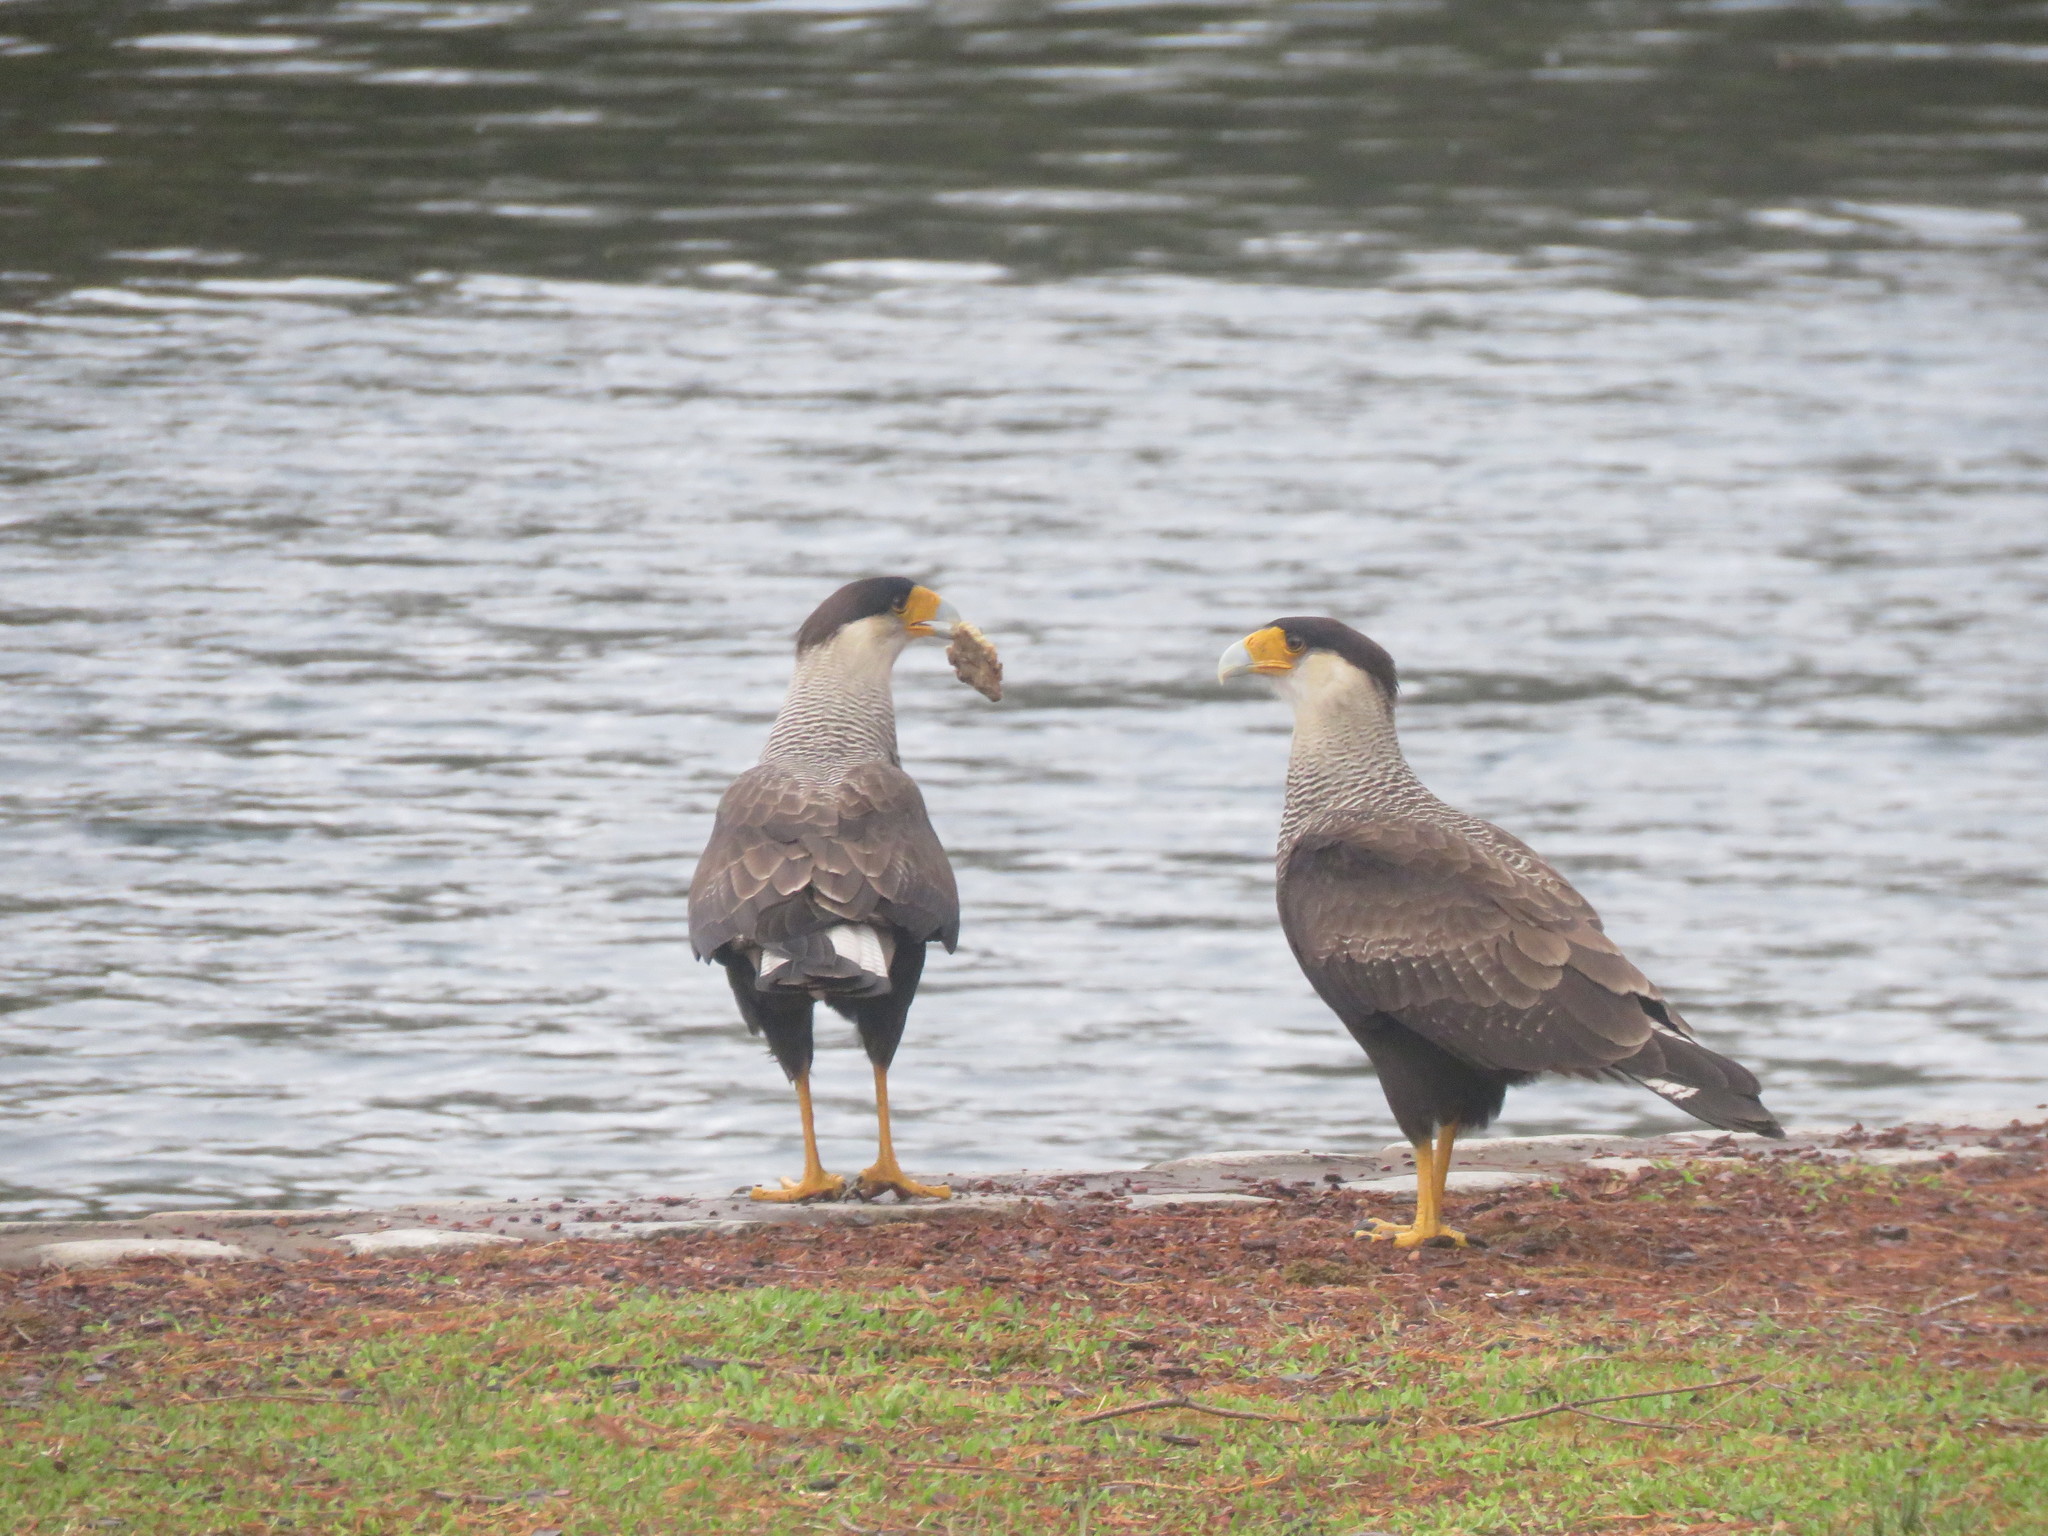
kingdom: Animalia
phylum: Chordata
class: Aves
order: Falconiformes
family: Falconidae
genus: Caracara
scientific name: Caracara plancus
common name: Southern caracara
